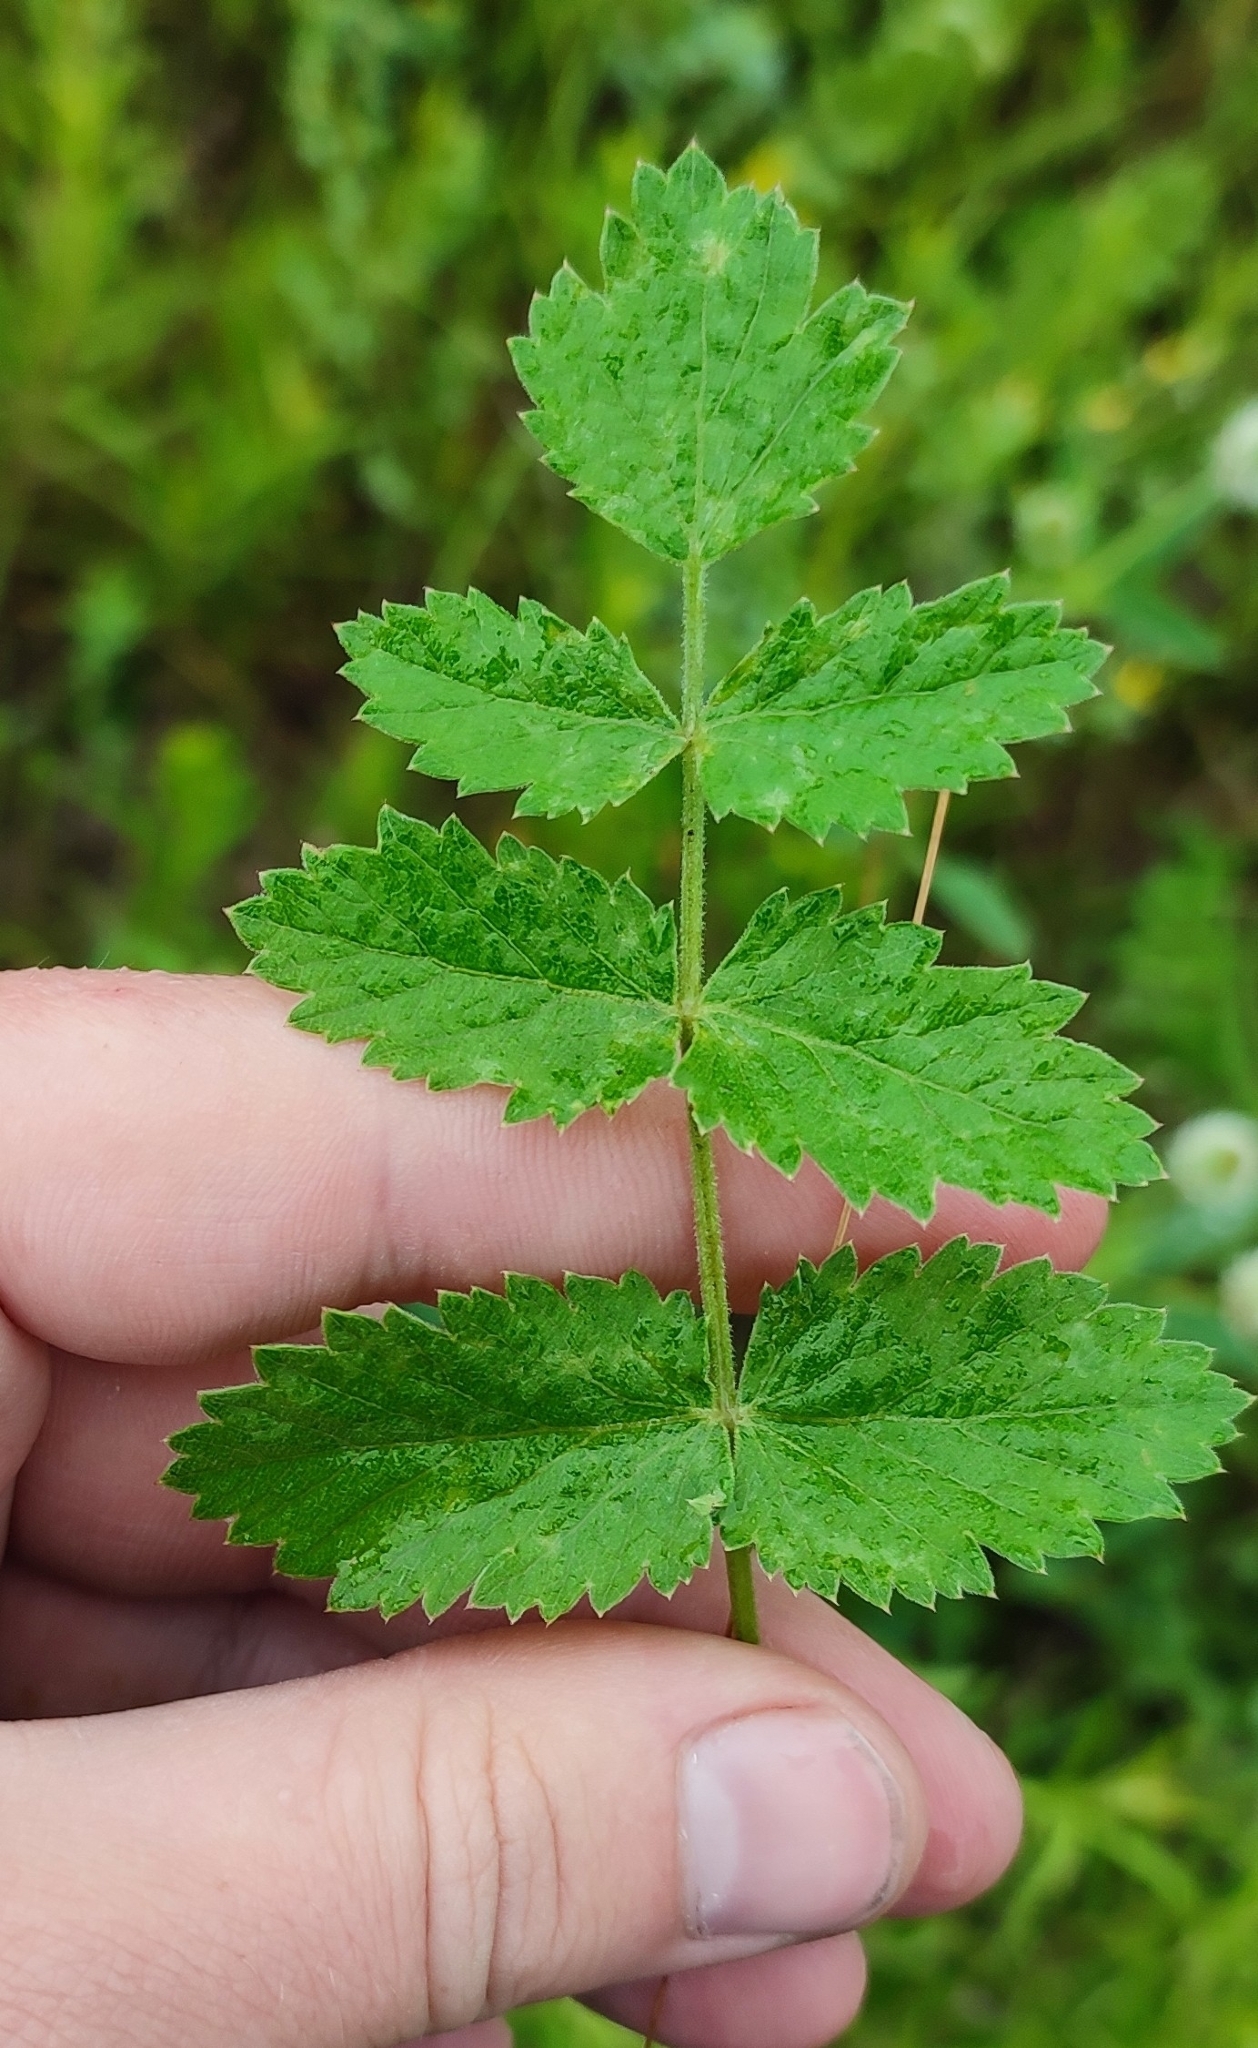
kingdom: Plantae
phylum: Tracheophyta
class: Magnoliopsida
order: Apiales
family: Apiaceae
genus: Pimpinella
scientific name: Pimpinella saxifraga
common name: Burnet-saxifrage
